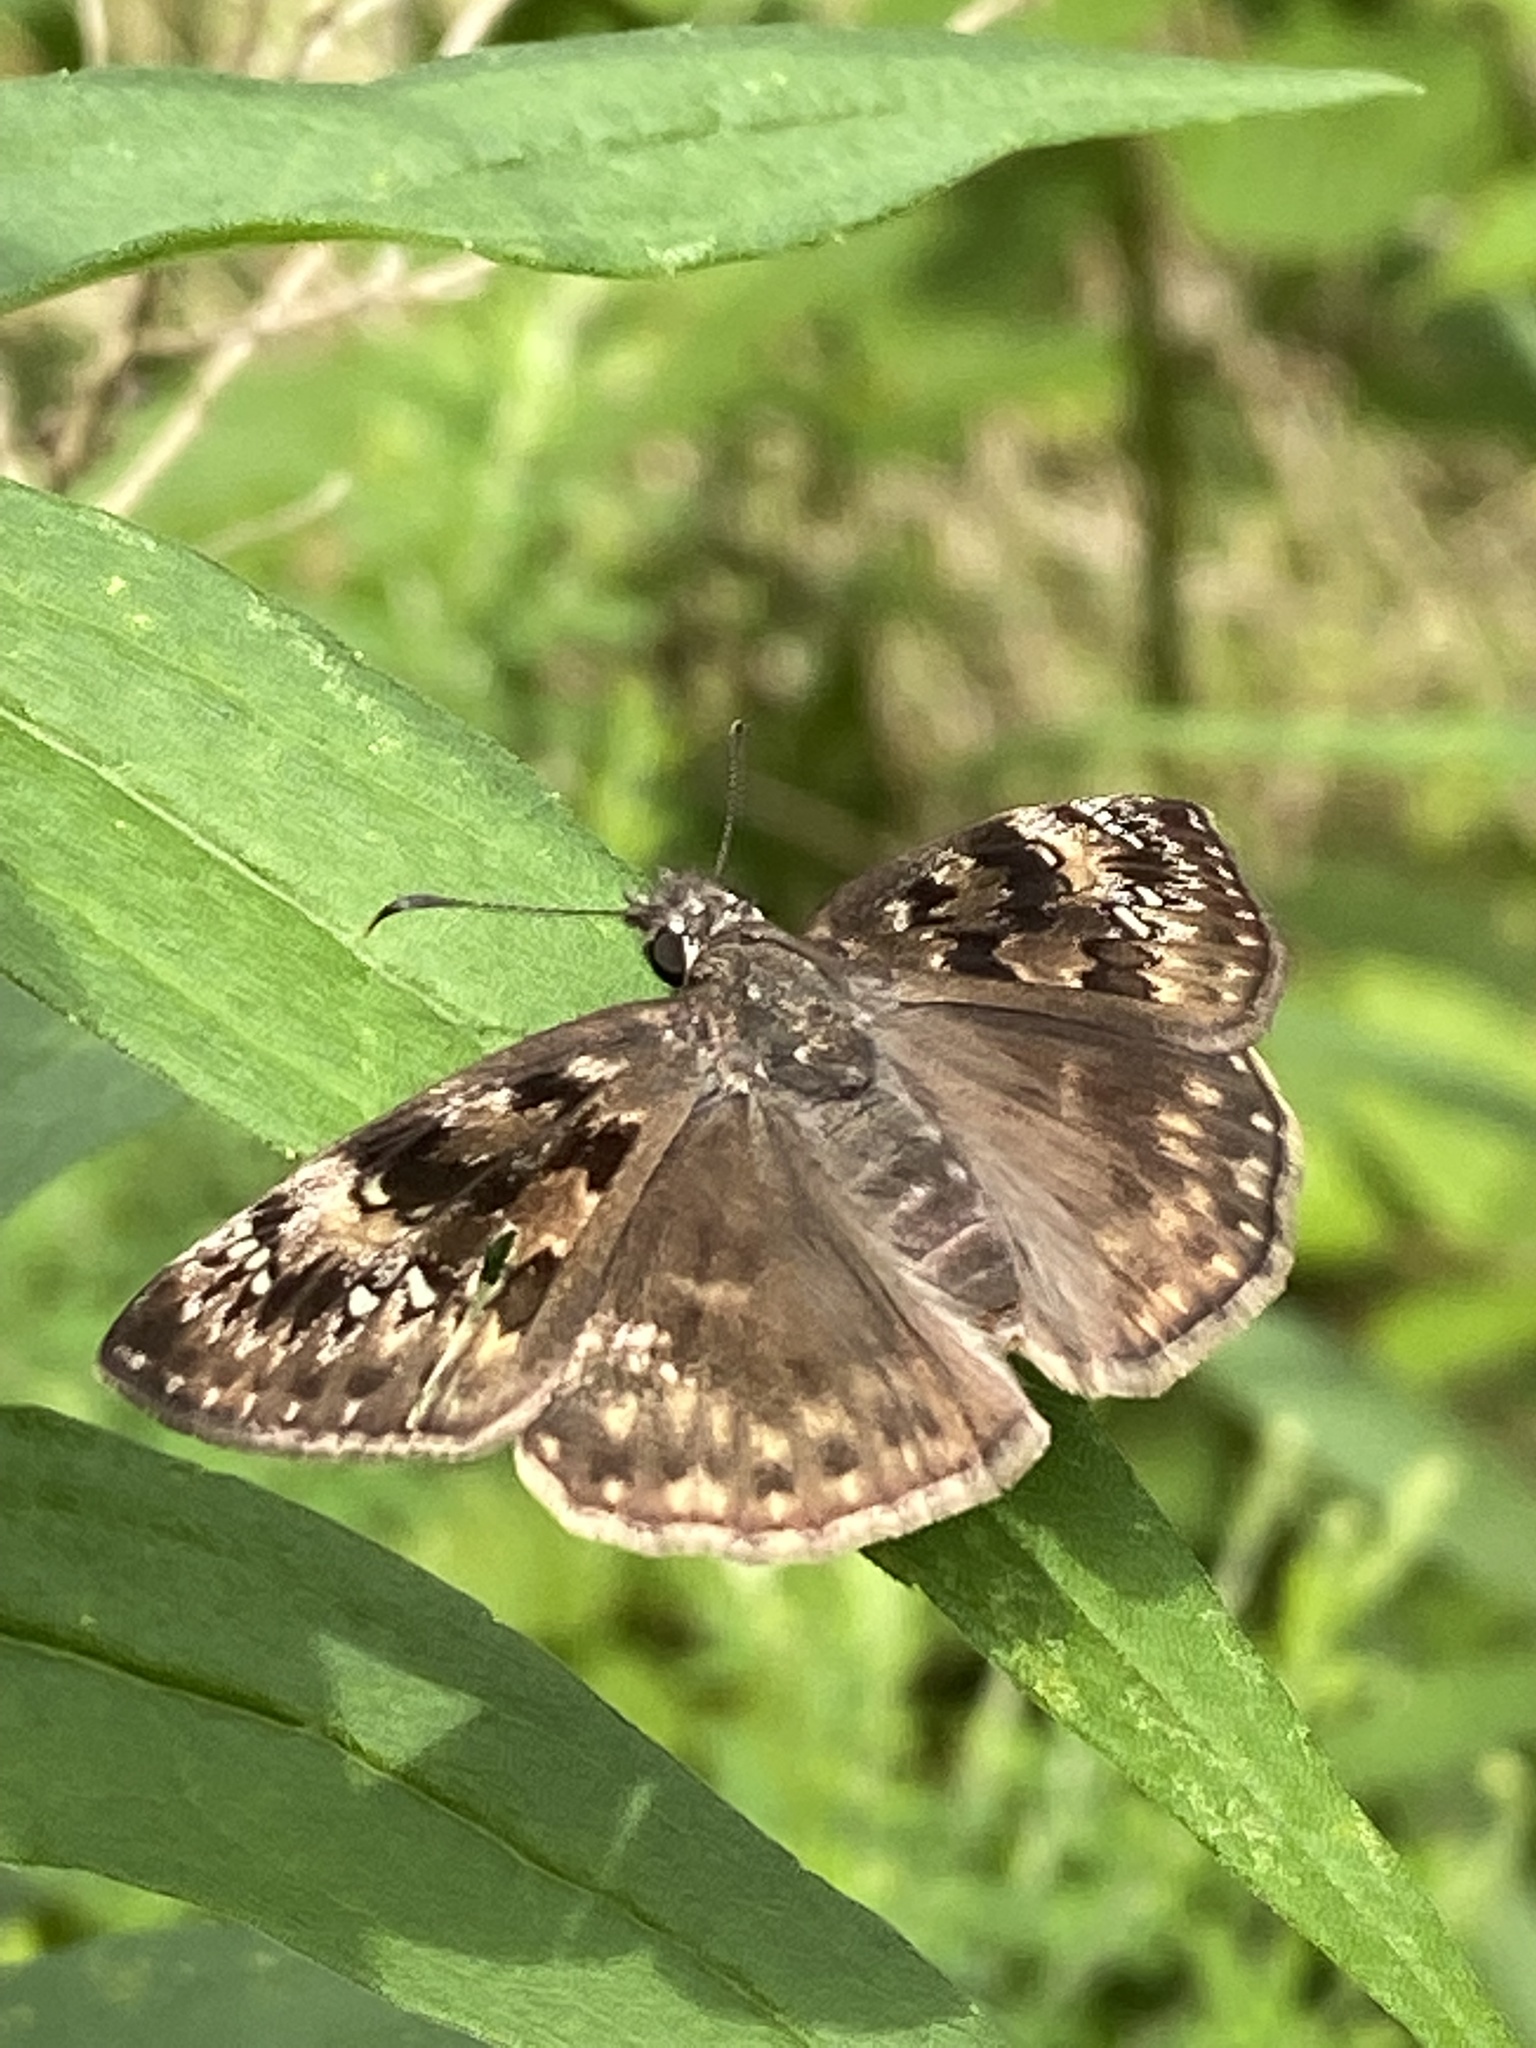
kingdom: Animalia
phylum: Arthropoda
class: Insecta
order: Lepidoptera
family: Hesperiidae
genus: Erynnis
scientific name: Erynnis horatius
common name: Horace's duskywing
